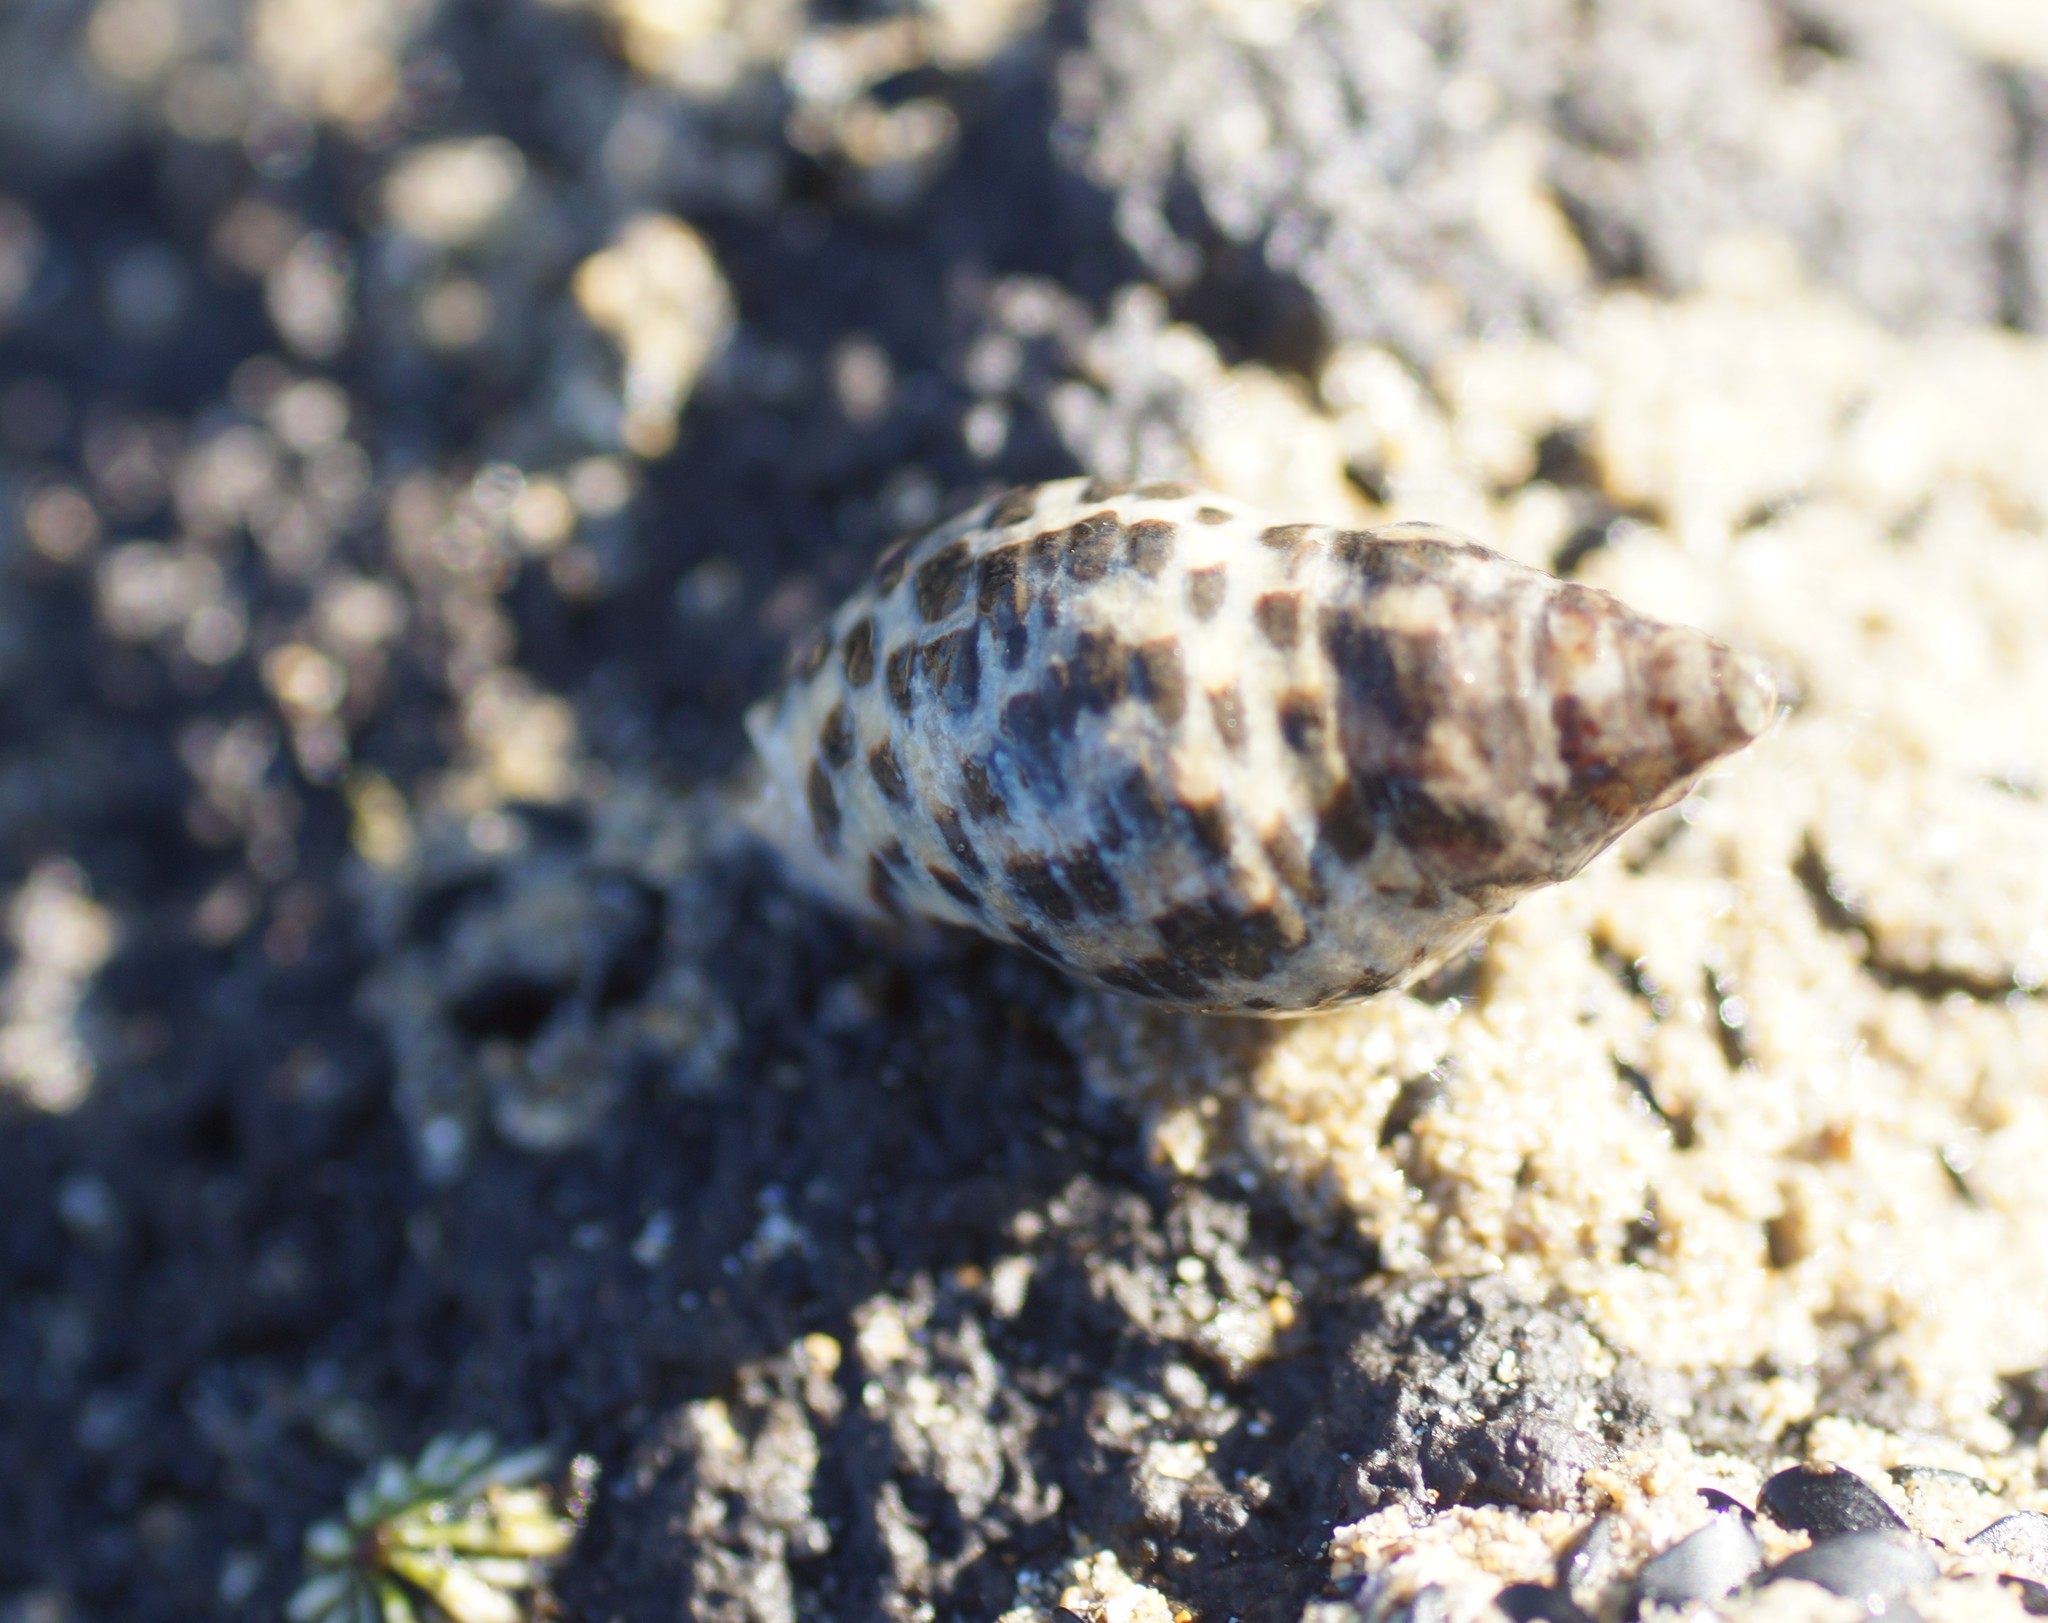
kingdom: Animalia
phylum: Mollusca
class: Gastropoda
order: Neogastropoda
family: Cominellidae
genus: Cominella
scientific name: Cominella lineolata
